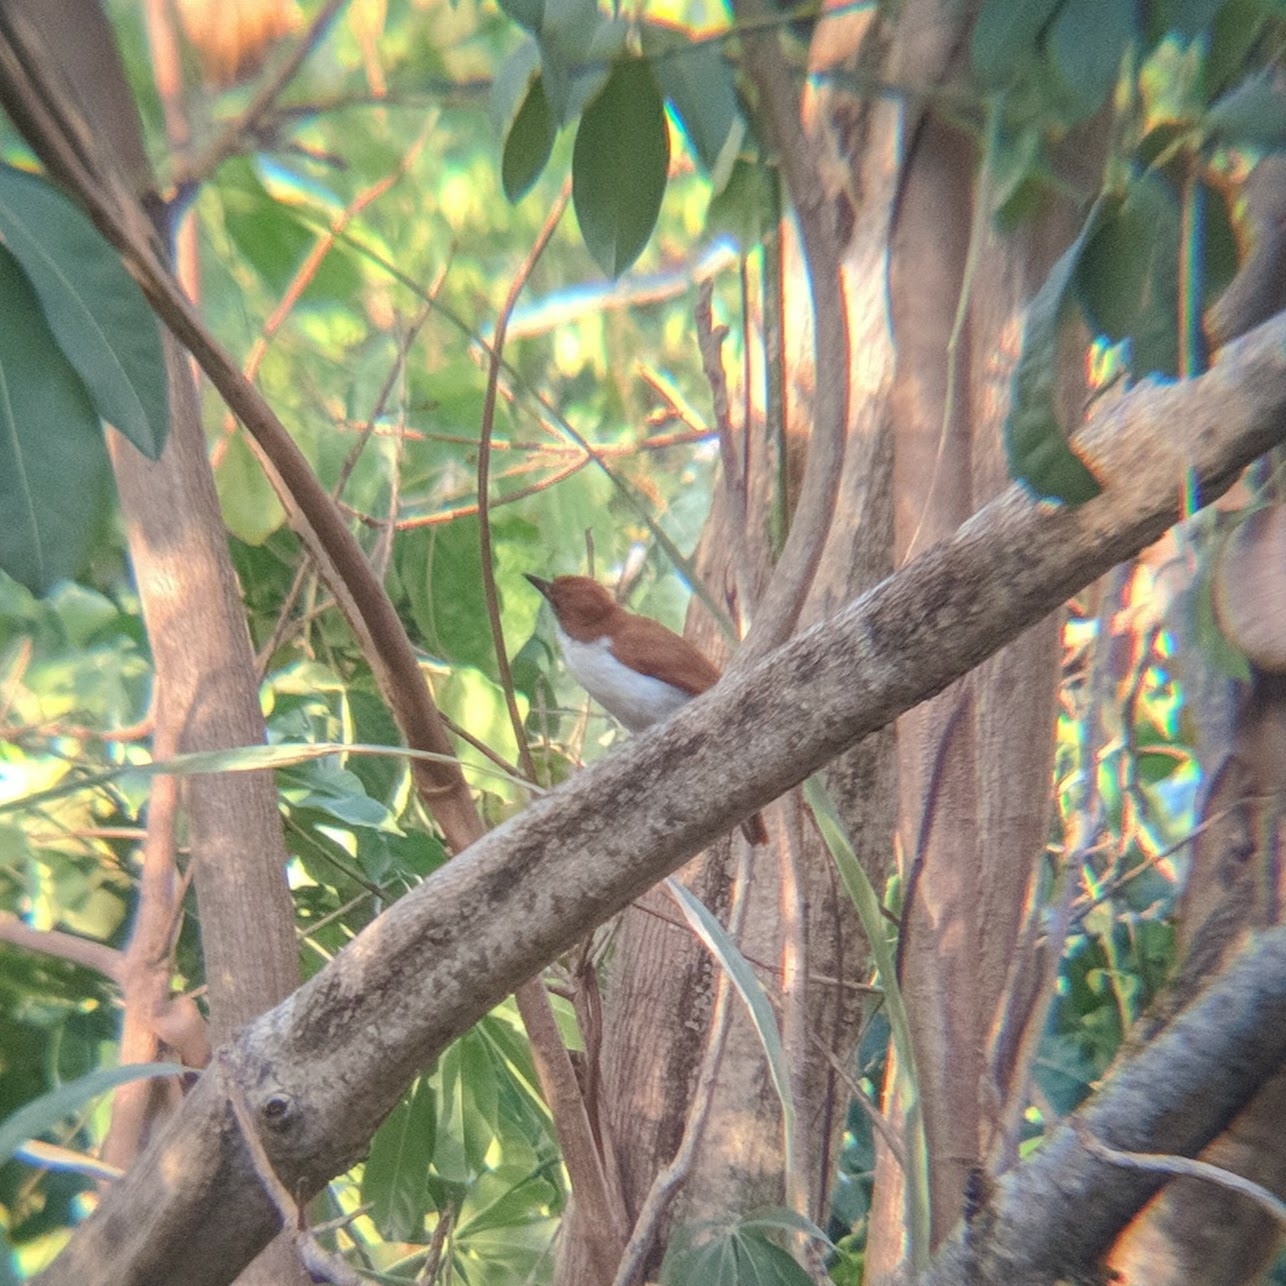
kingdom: Animalia
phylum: Chordata
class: Aves
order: Passeriformes
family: Thamnophilidae
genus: Taraba
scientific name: Taraba major
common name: Great antshrike
